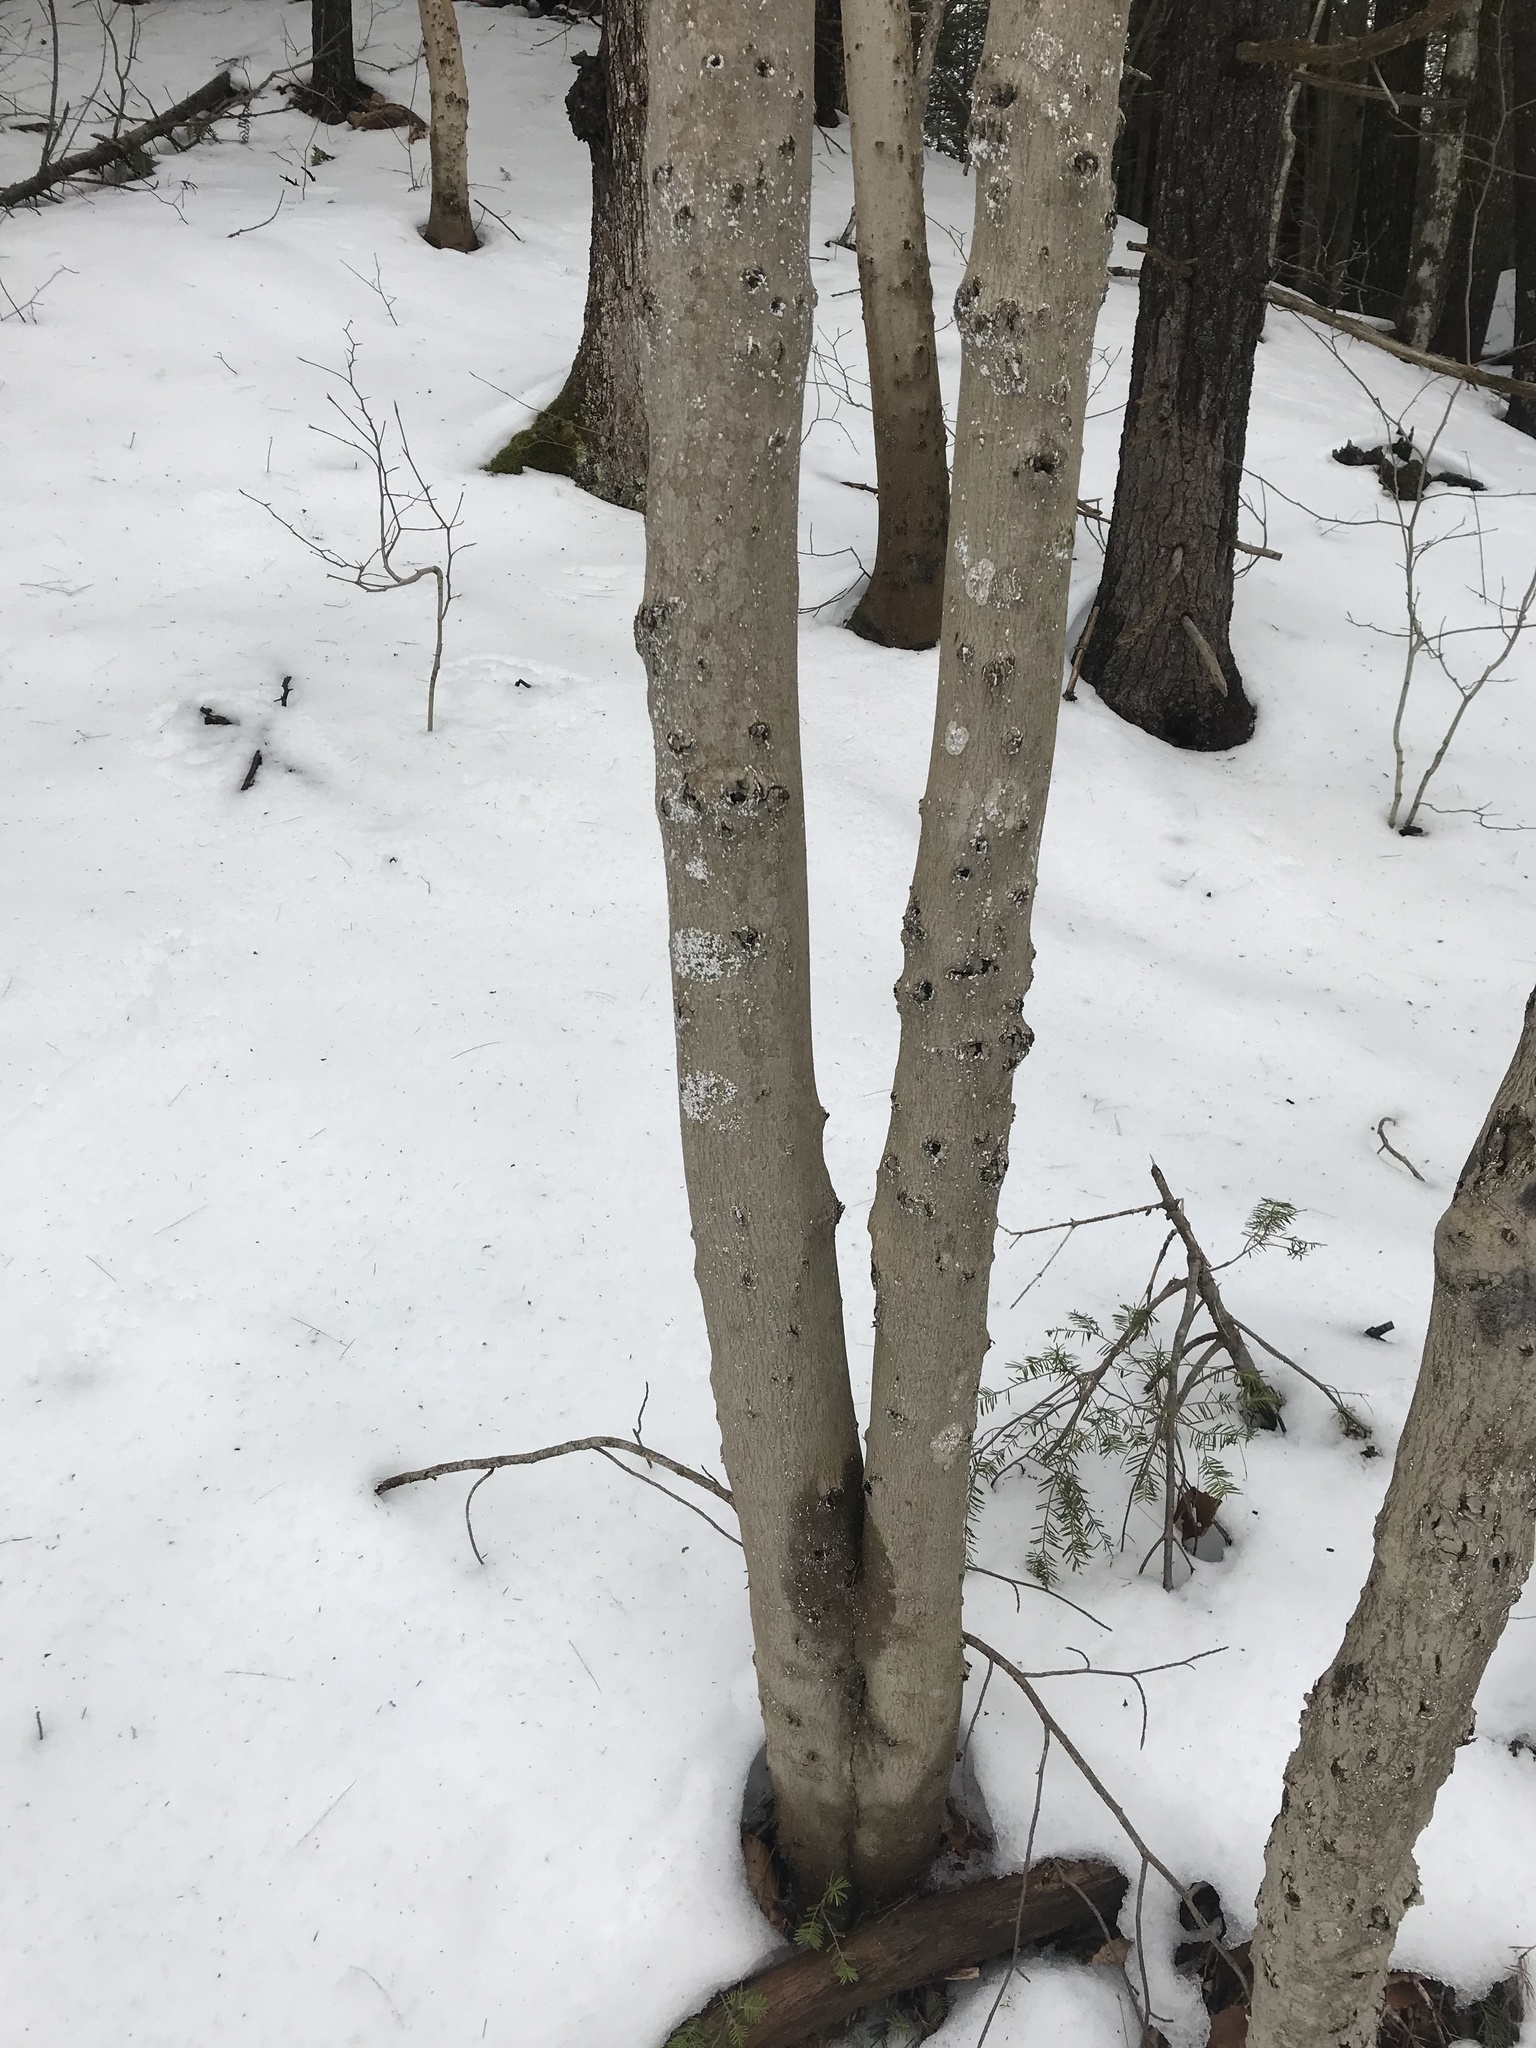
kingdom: Plantae
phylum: Tracheophyta
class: Magnoliopsida
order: Fagales
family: Fagaceae
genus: Fagus
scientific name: Fagus grandifolia
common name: American beech
